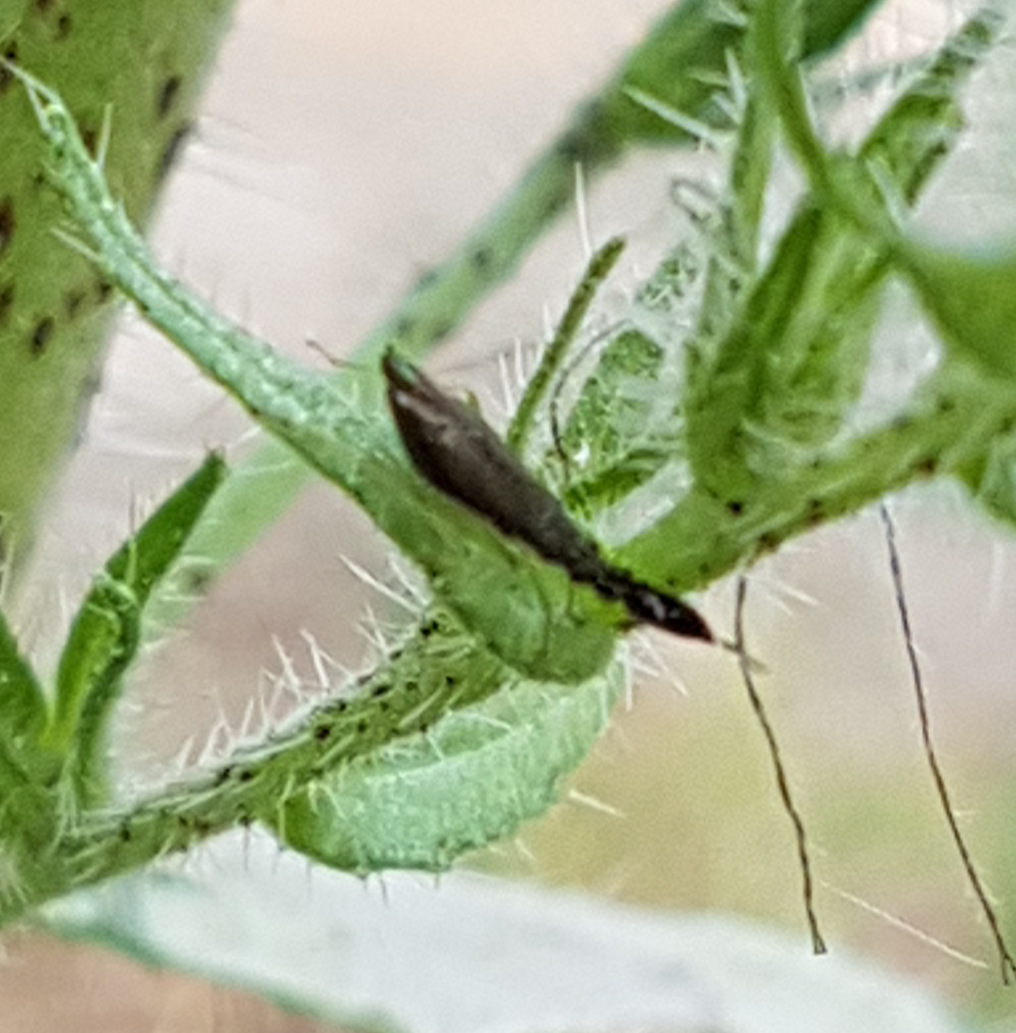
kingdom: Animalia
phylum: Arthropoda
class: Insecta
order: Hemiptera
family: Miridae
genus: Heterotoma
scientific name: Heterotoma planicornis
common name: Plant bug
